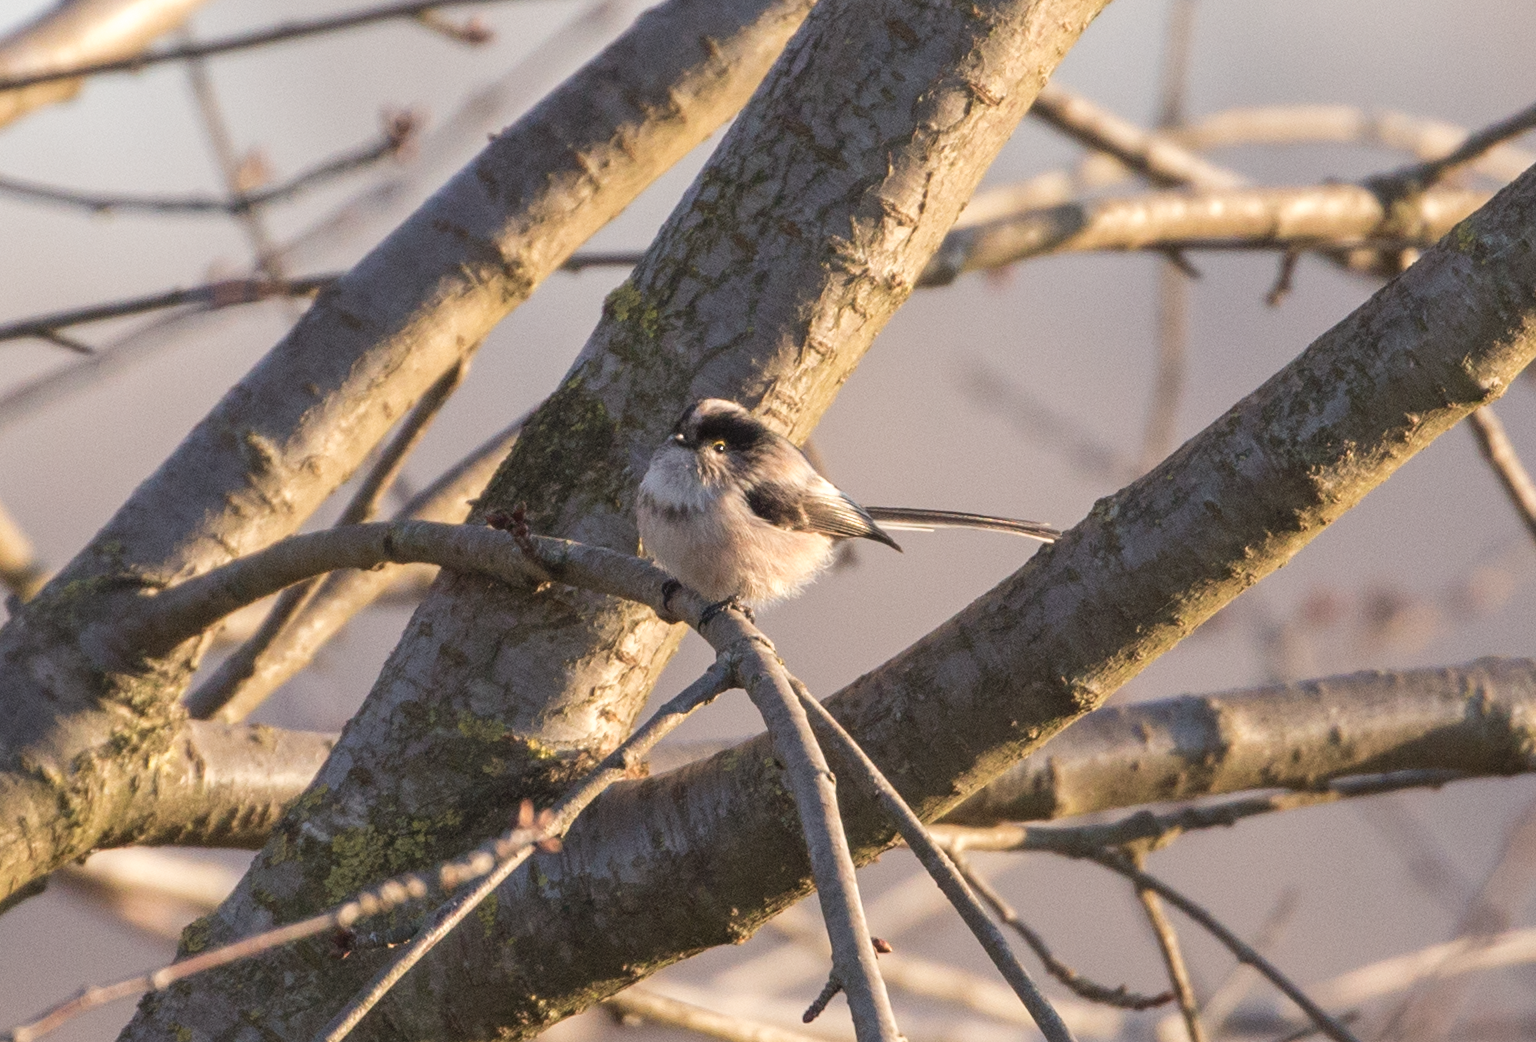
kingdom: Animalia
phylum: Chordata
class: Aves
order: Passeriformes
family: Aegithalidae
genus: Aegithalos
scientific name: Aegithalos caudatus
